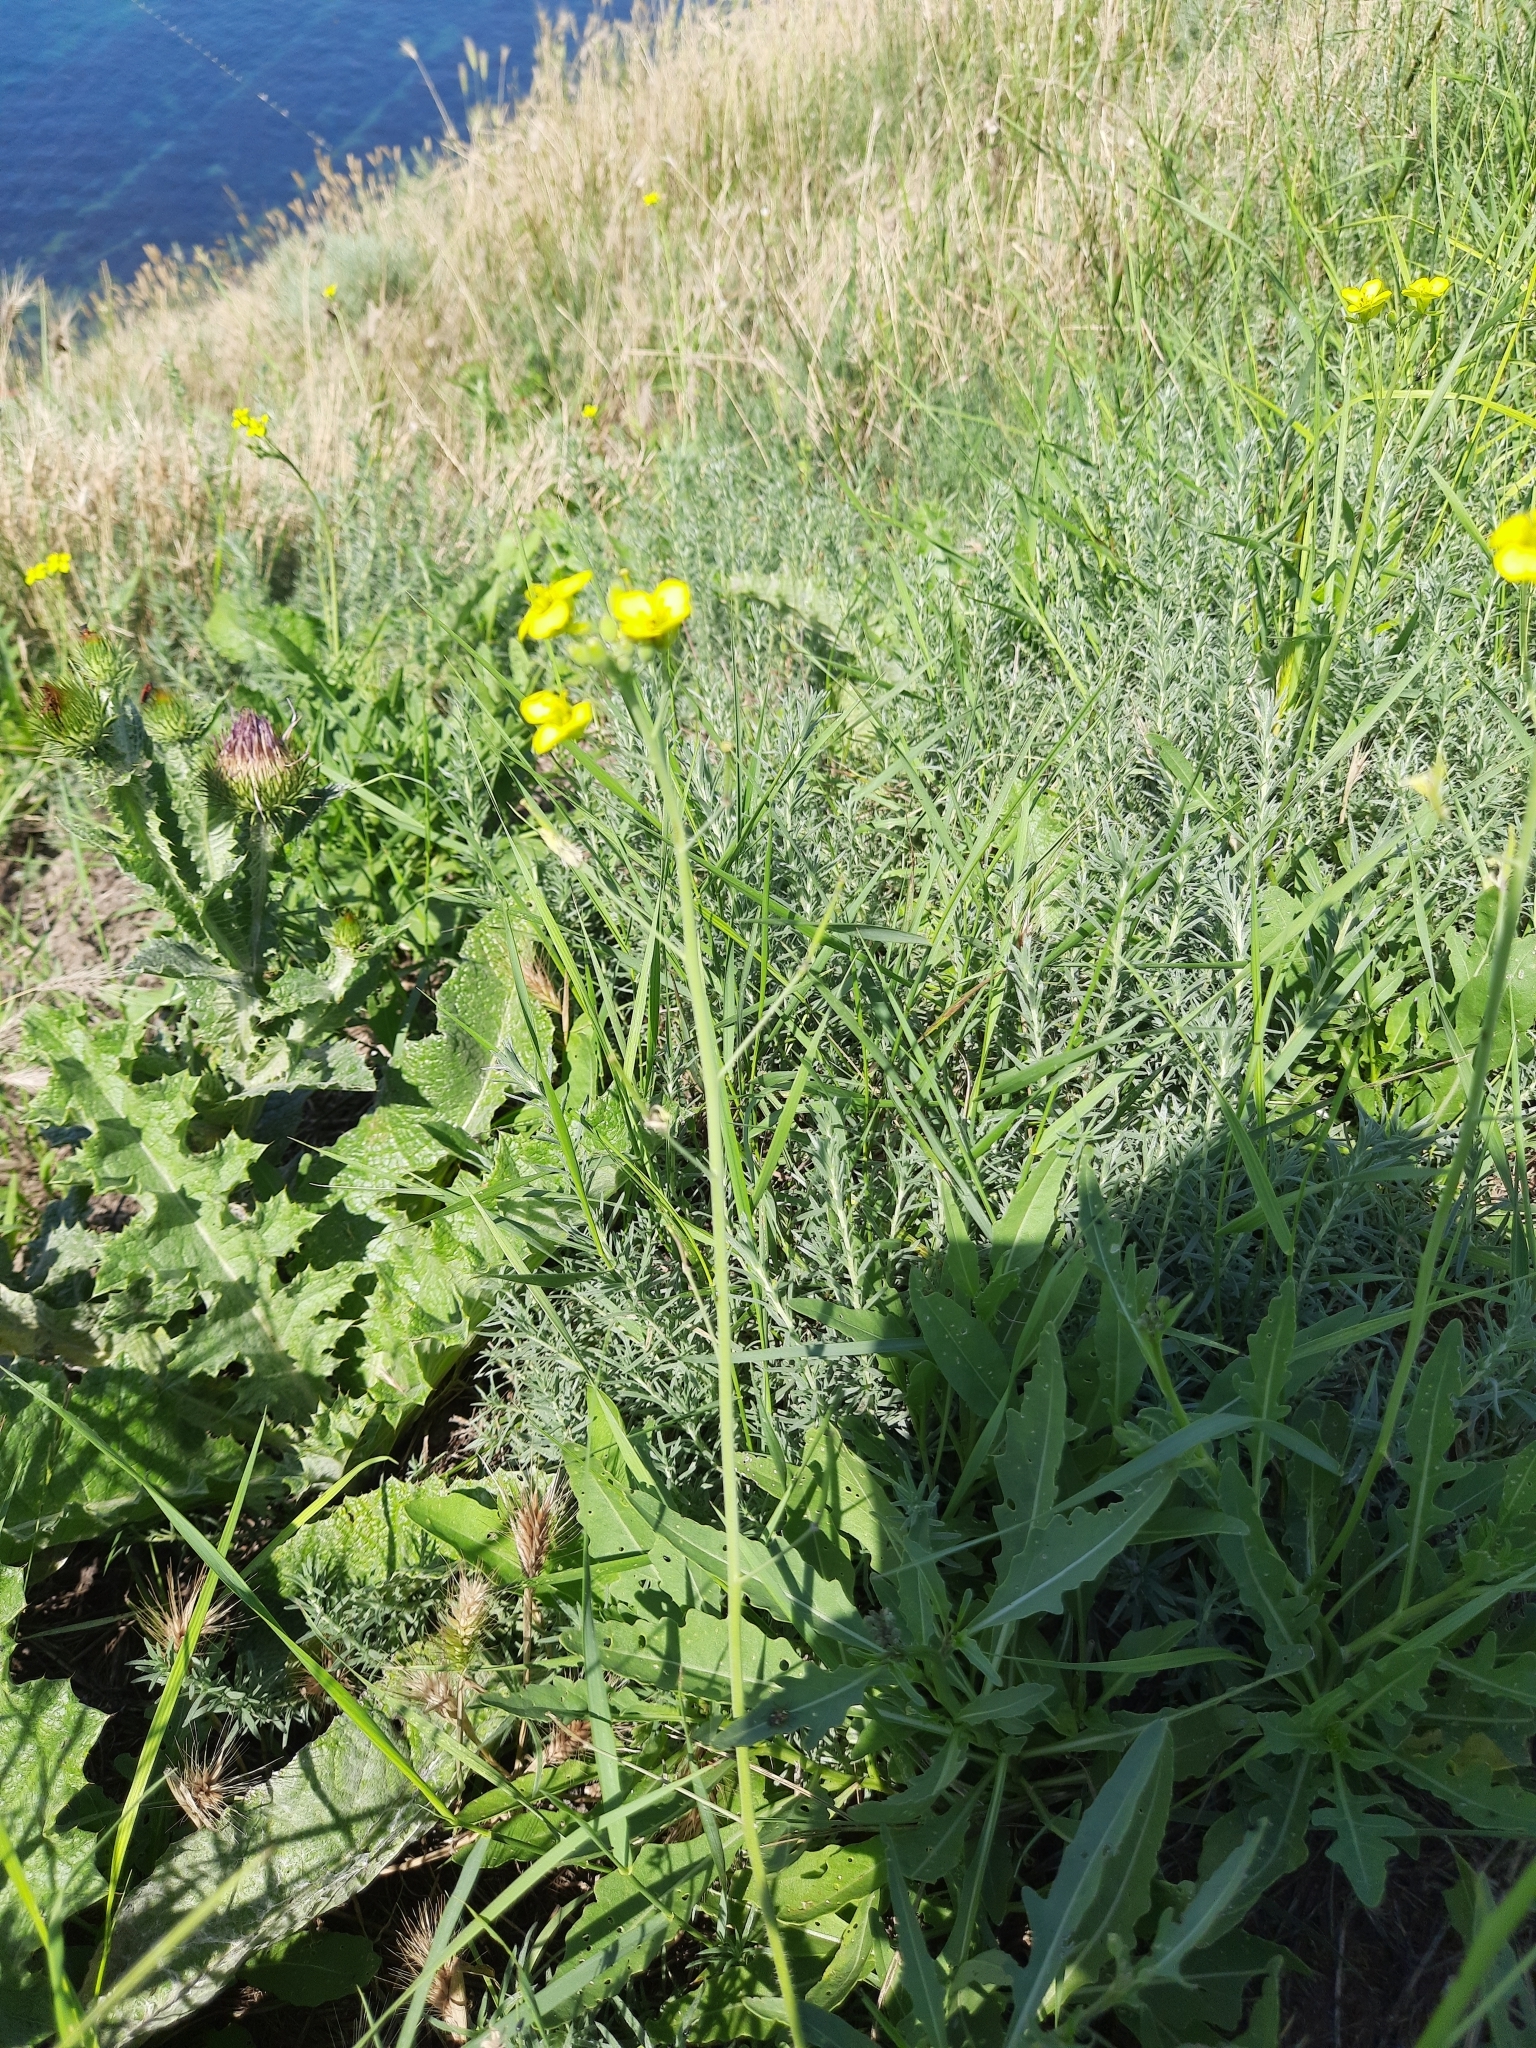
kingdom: Plantae
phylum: Tracheophyta
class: Magnoliopsida
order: Asterales
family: Asteraceae
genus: Onopordum
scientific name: Onopordum acanthium
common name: Scotch thistle
